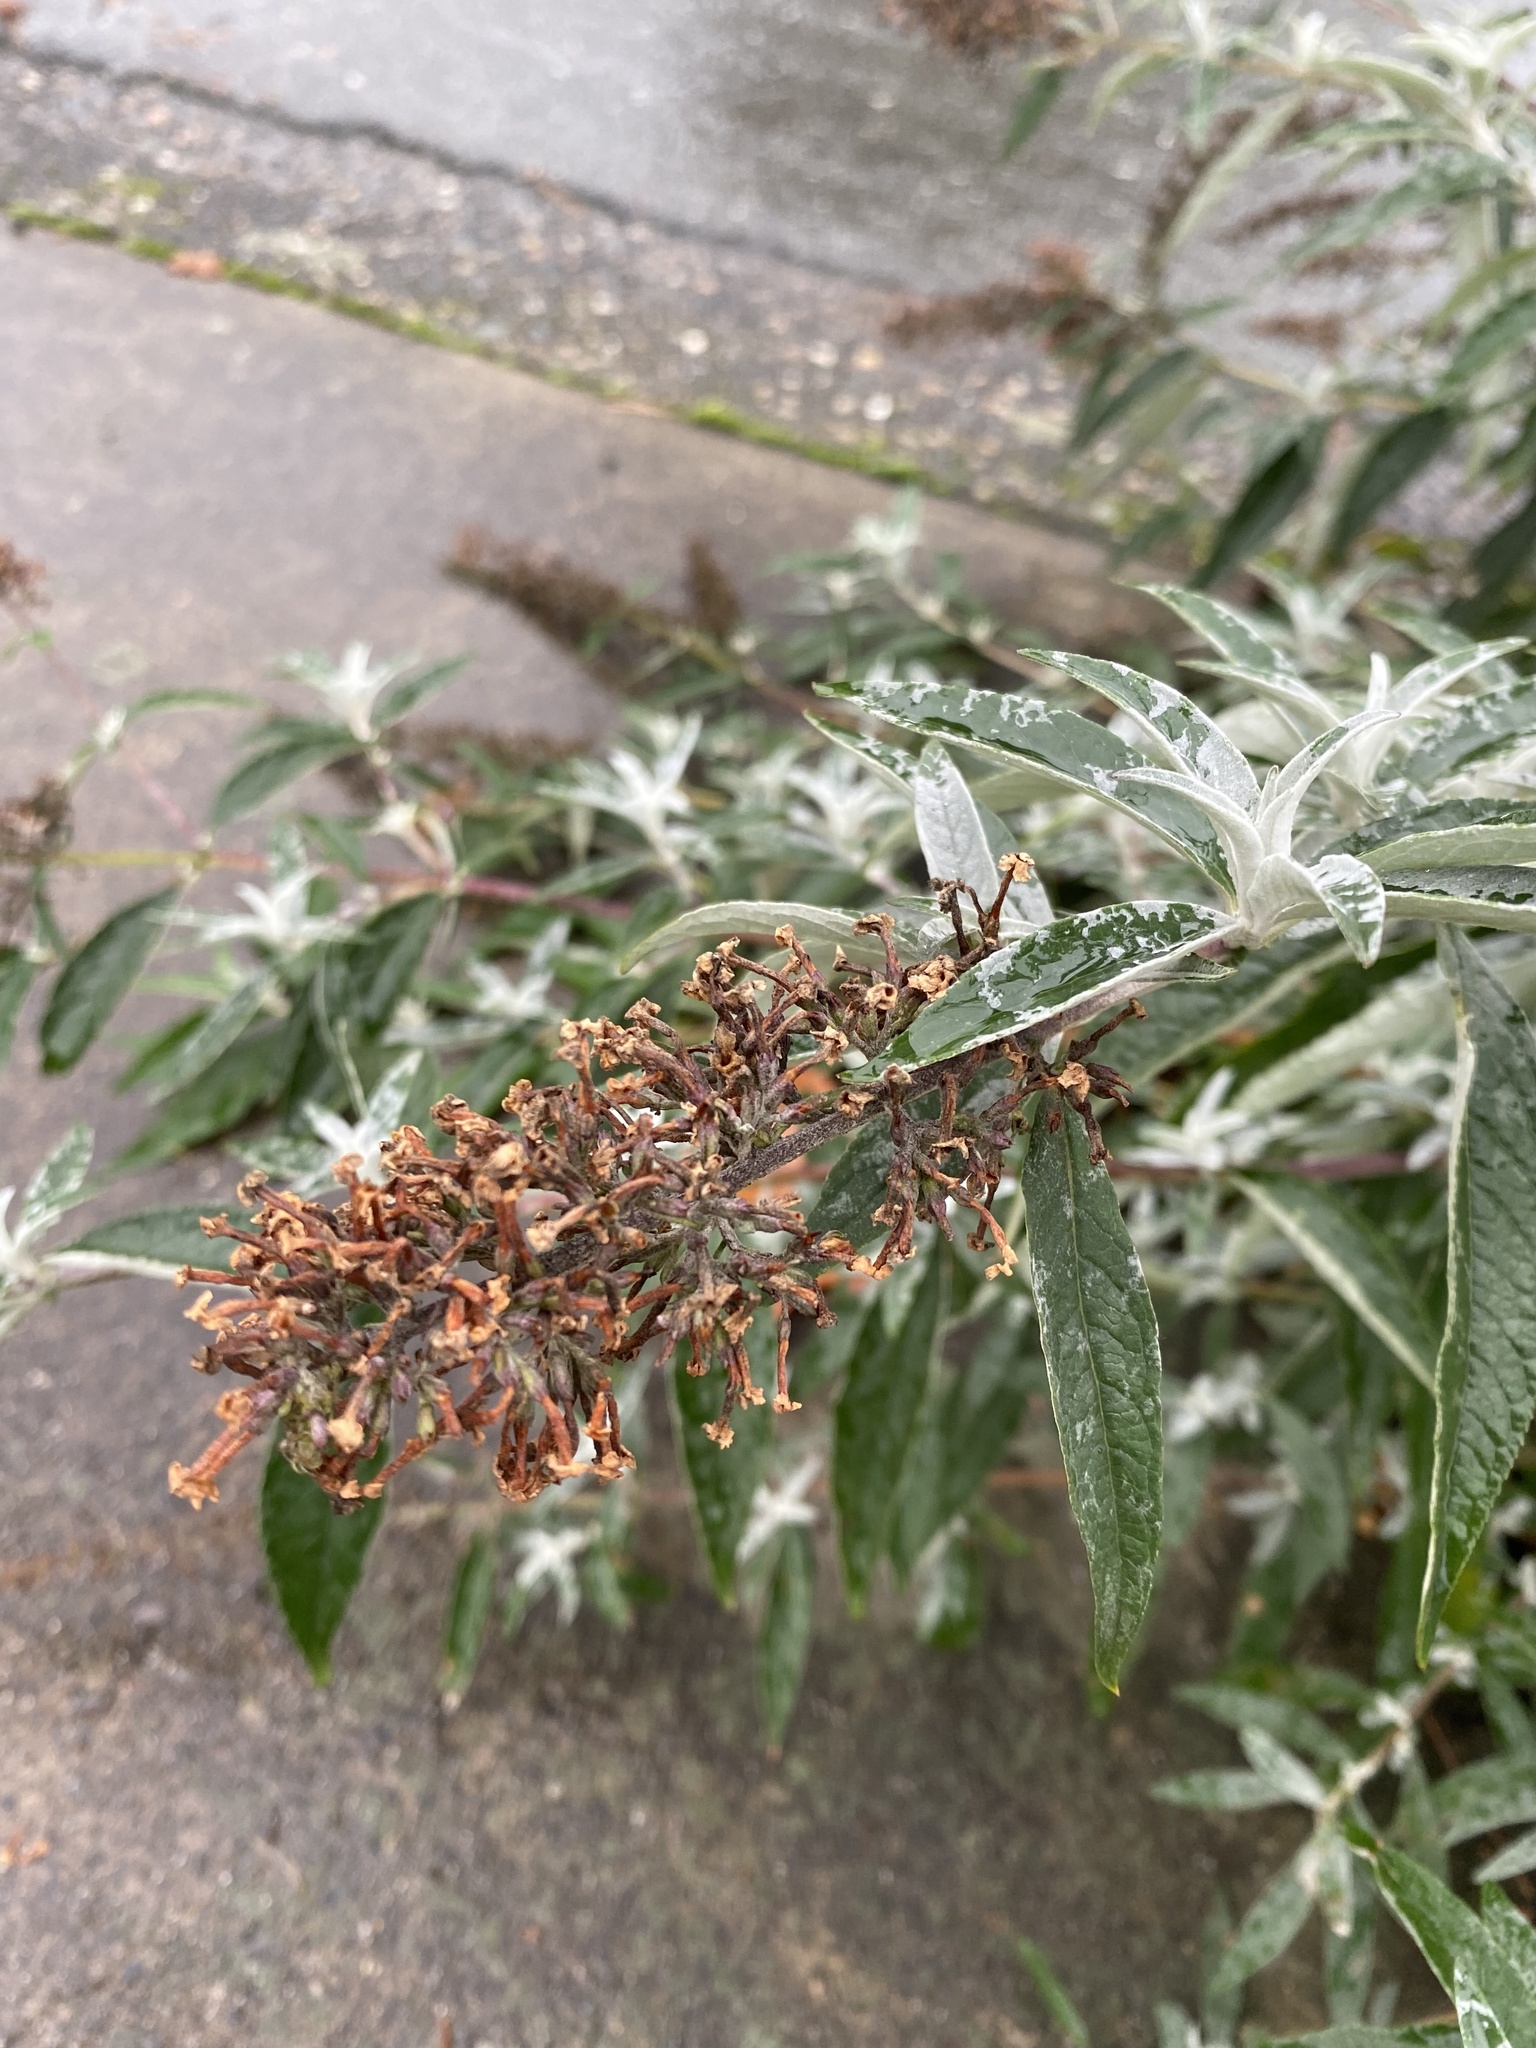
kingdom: Plantae
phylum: Tracheophyta
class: Magnoliopsida
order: Lamiales
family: Scrophulariaceae
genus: Buddleja
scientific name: Buddleja davidii
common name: Butterfly-bush
